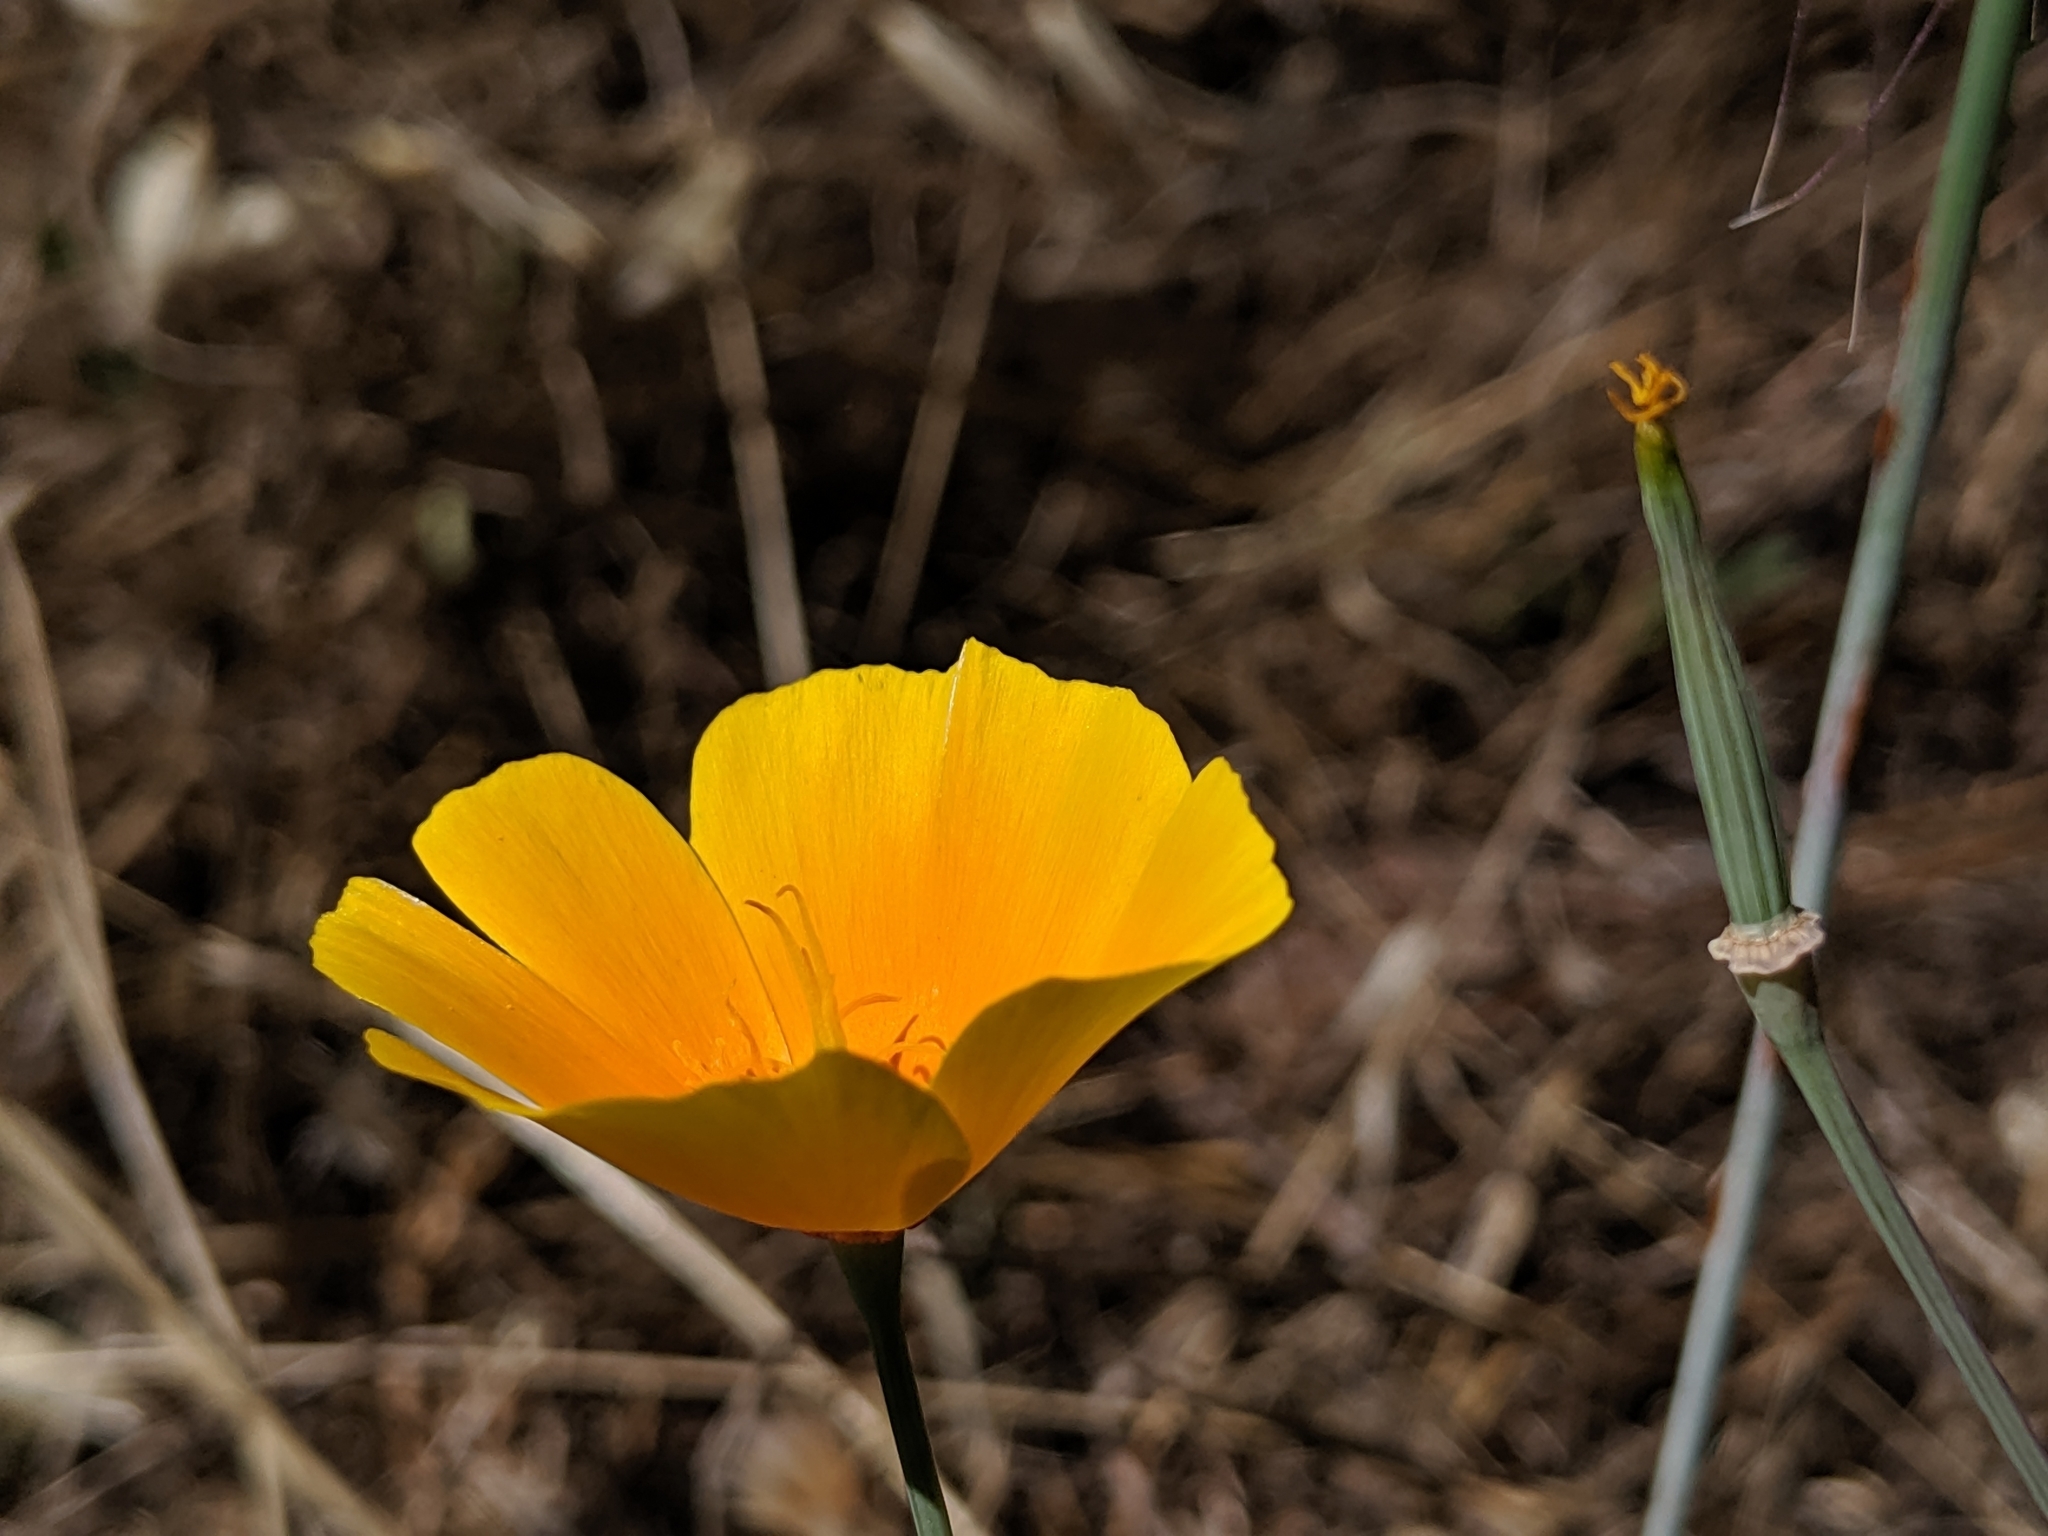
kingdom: Plantae
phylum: Tracheophyta
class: Magnoliopsida
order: Ranunculales
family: Papaveraceae
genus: Eschscholzia
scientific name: Eschscholzia californica
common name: California poppy
